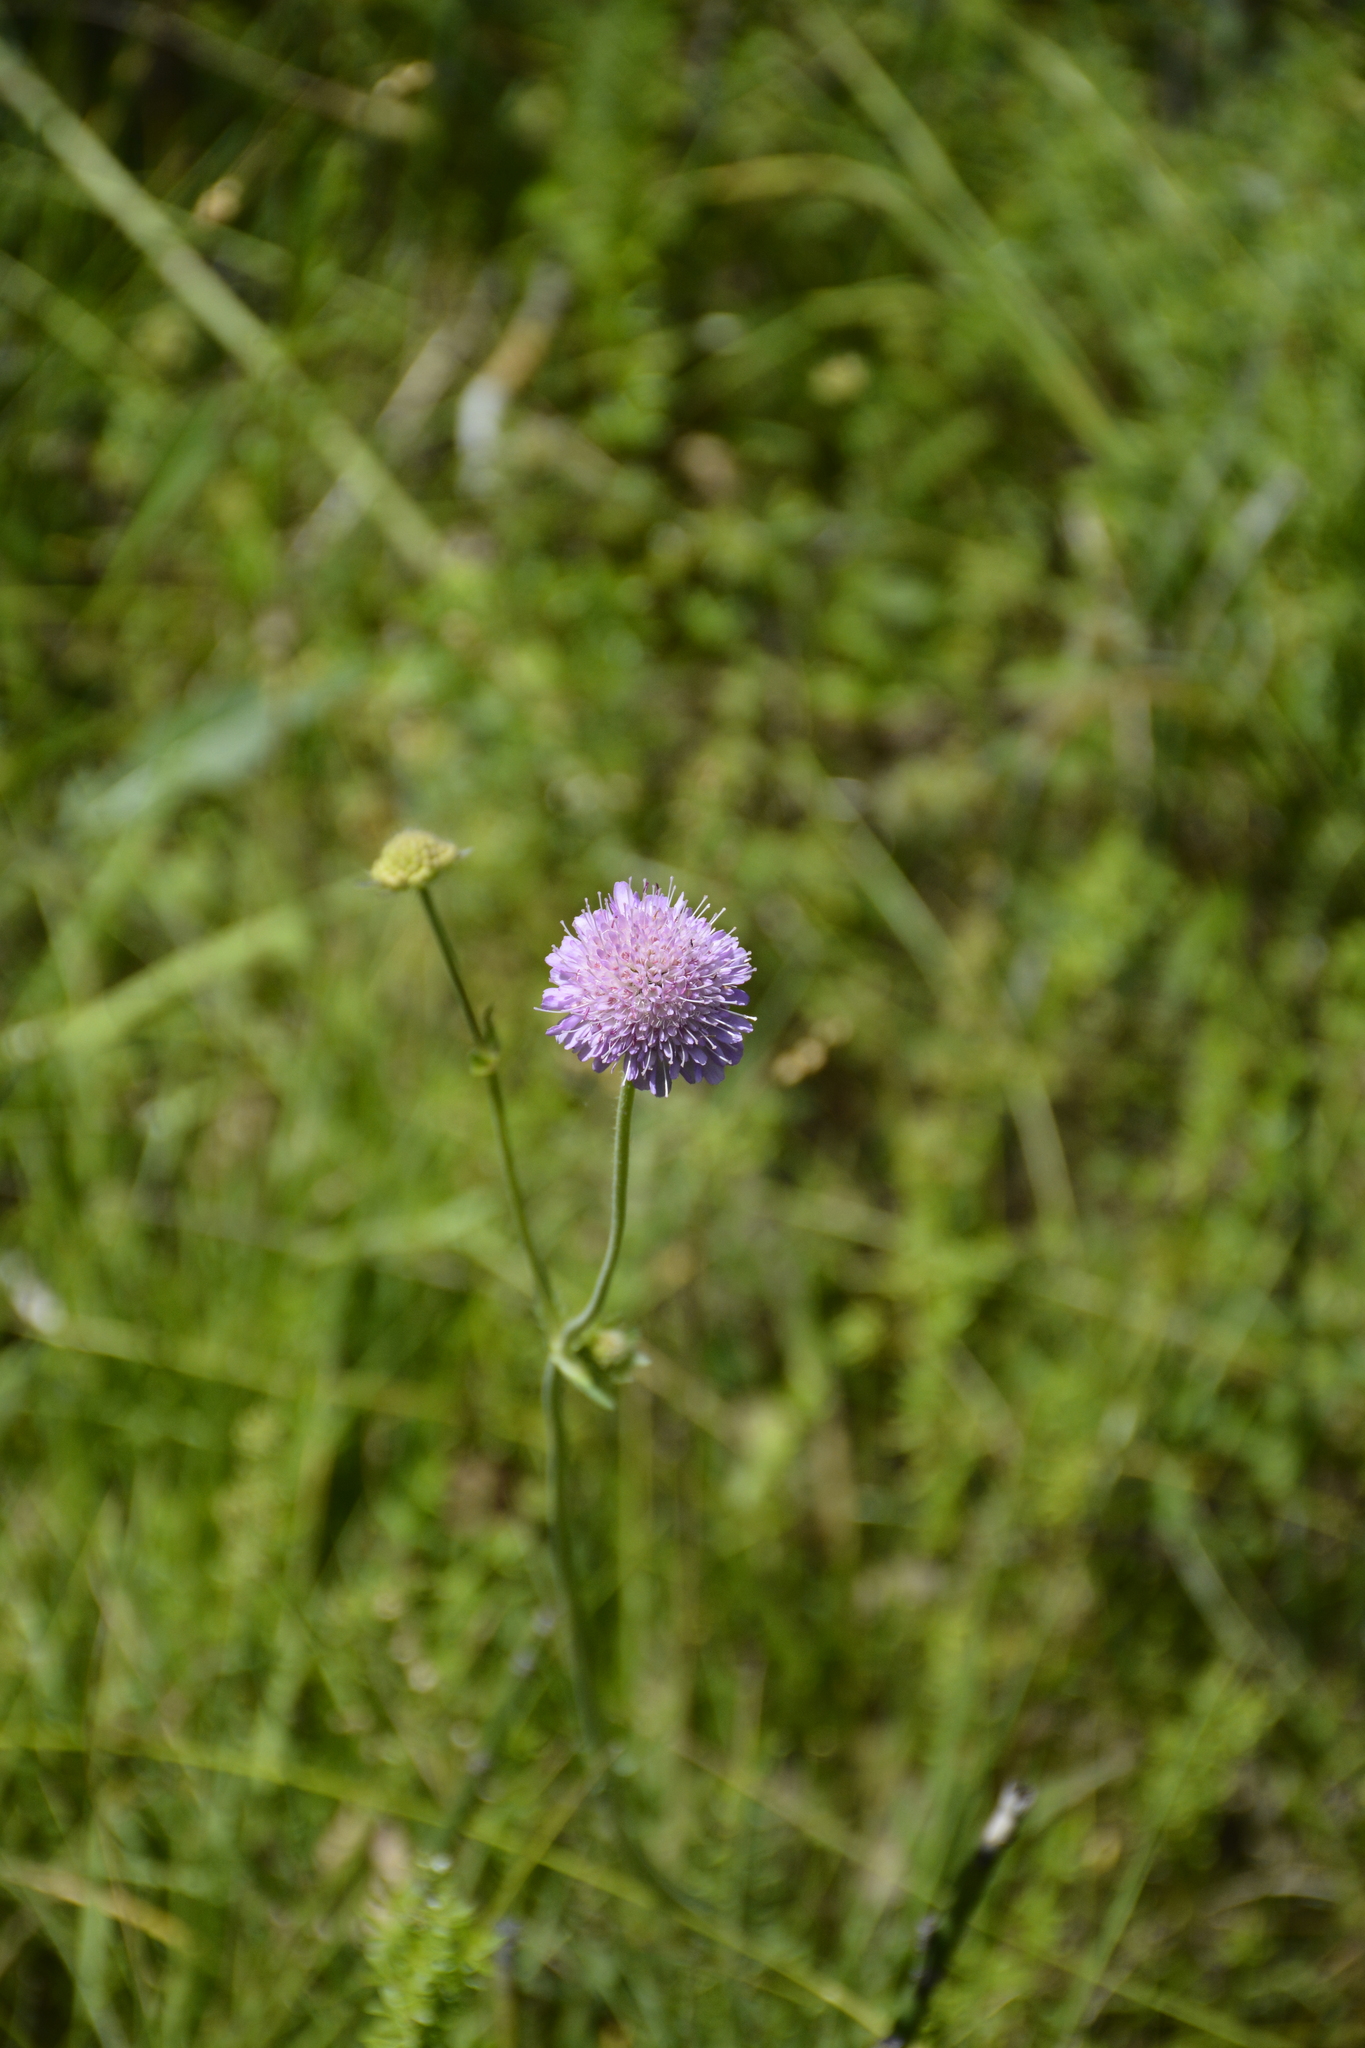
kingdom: Plantae
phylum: Tracheophyta
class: Magnoliopsida
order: Dipsacales
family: Caprifoliaceae
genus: Knautia
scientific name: Knautia arvensis
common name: Field scabiosa
